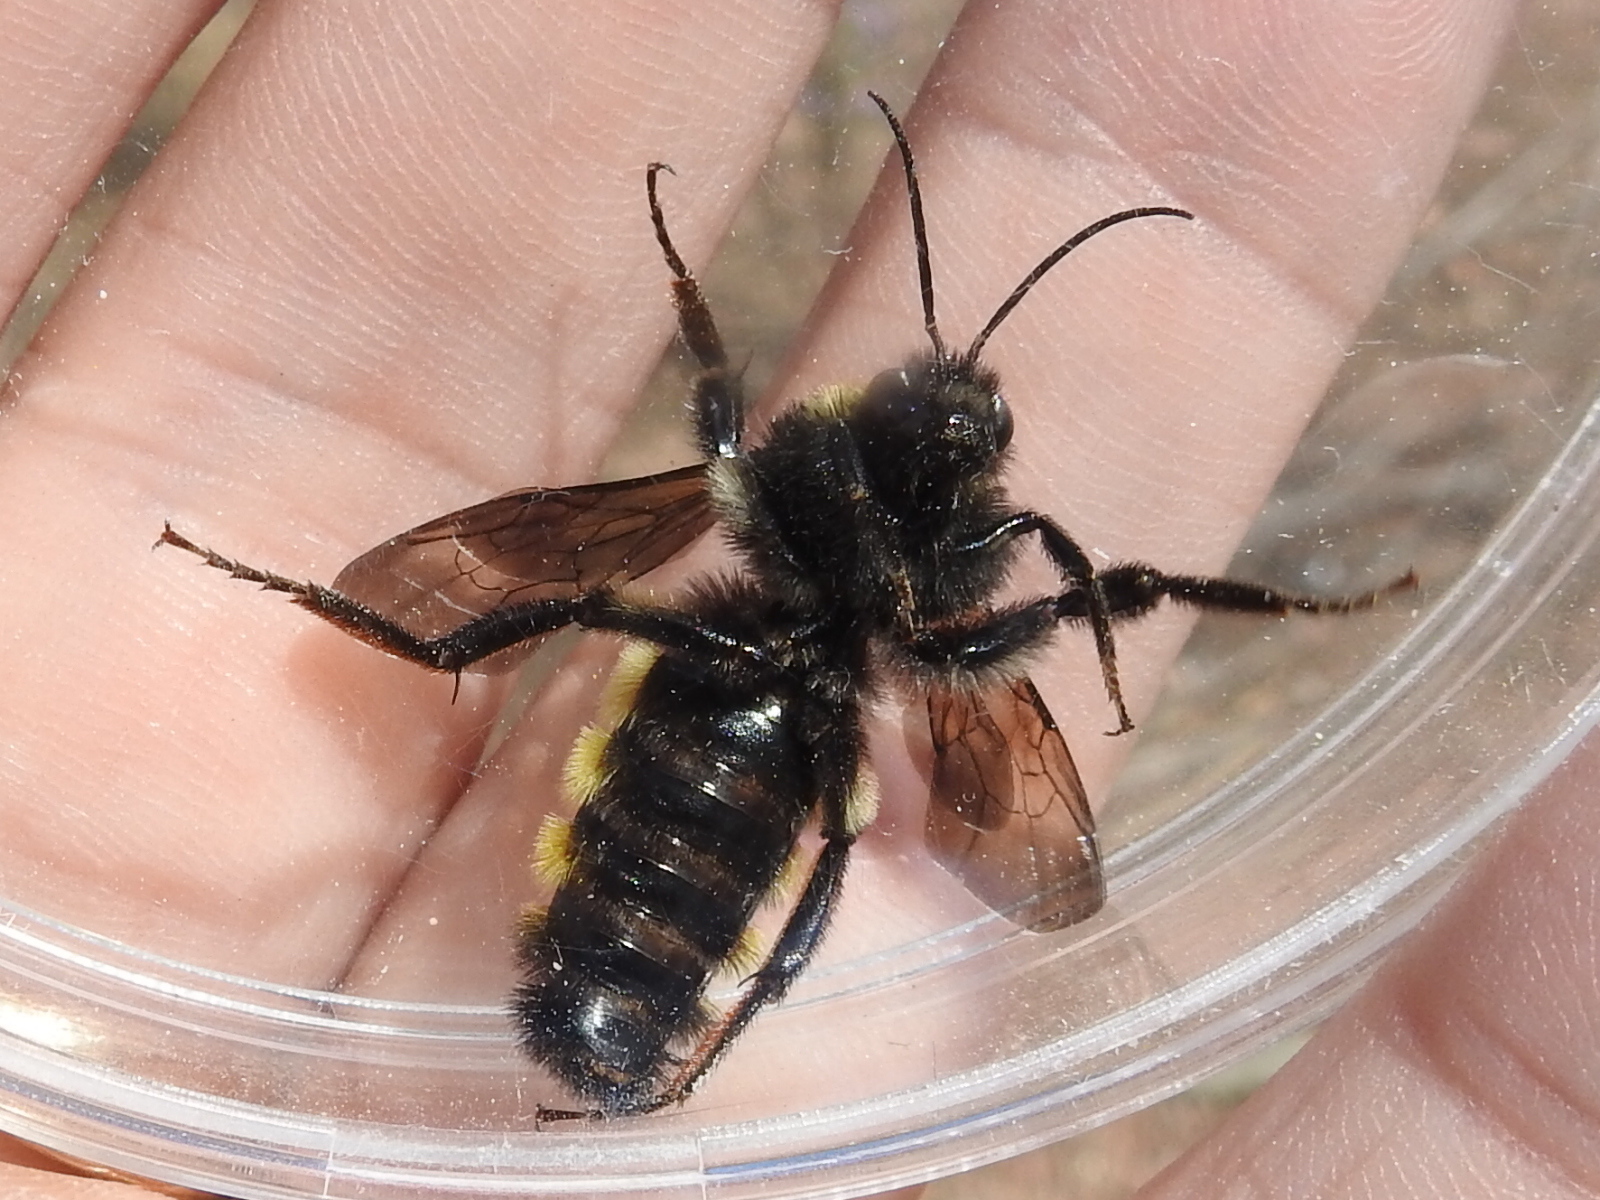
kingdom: Animalia
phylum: Arthropoda
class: Insecta
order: Hymenoptera
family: Apidae
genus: Bombus
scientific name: Bombus pensylvanicus
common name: Bumble bee
